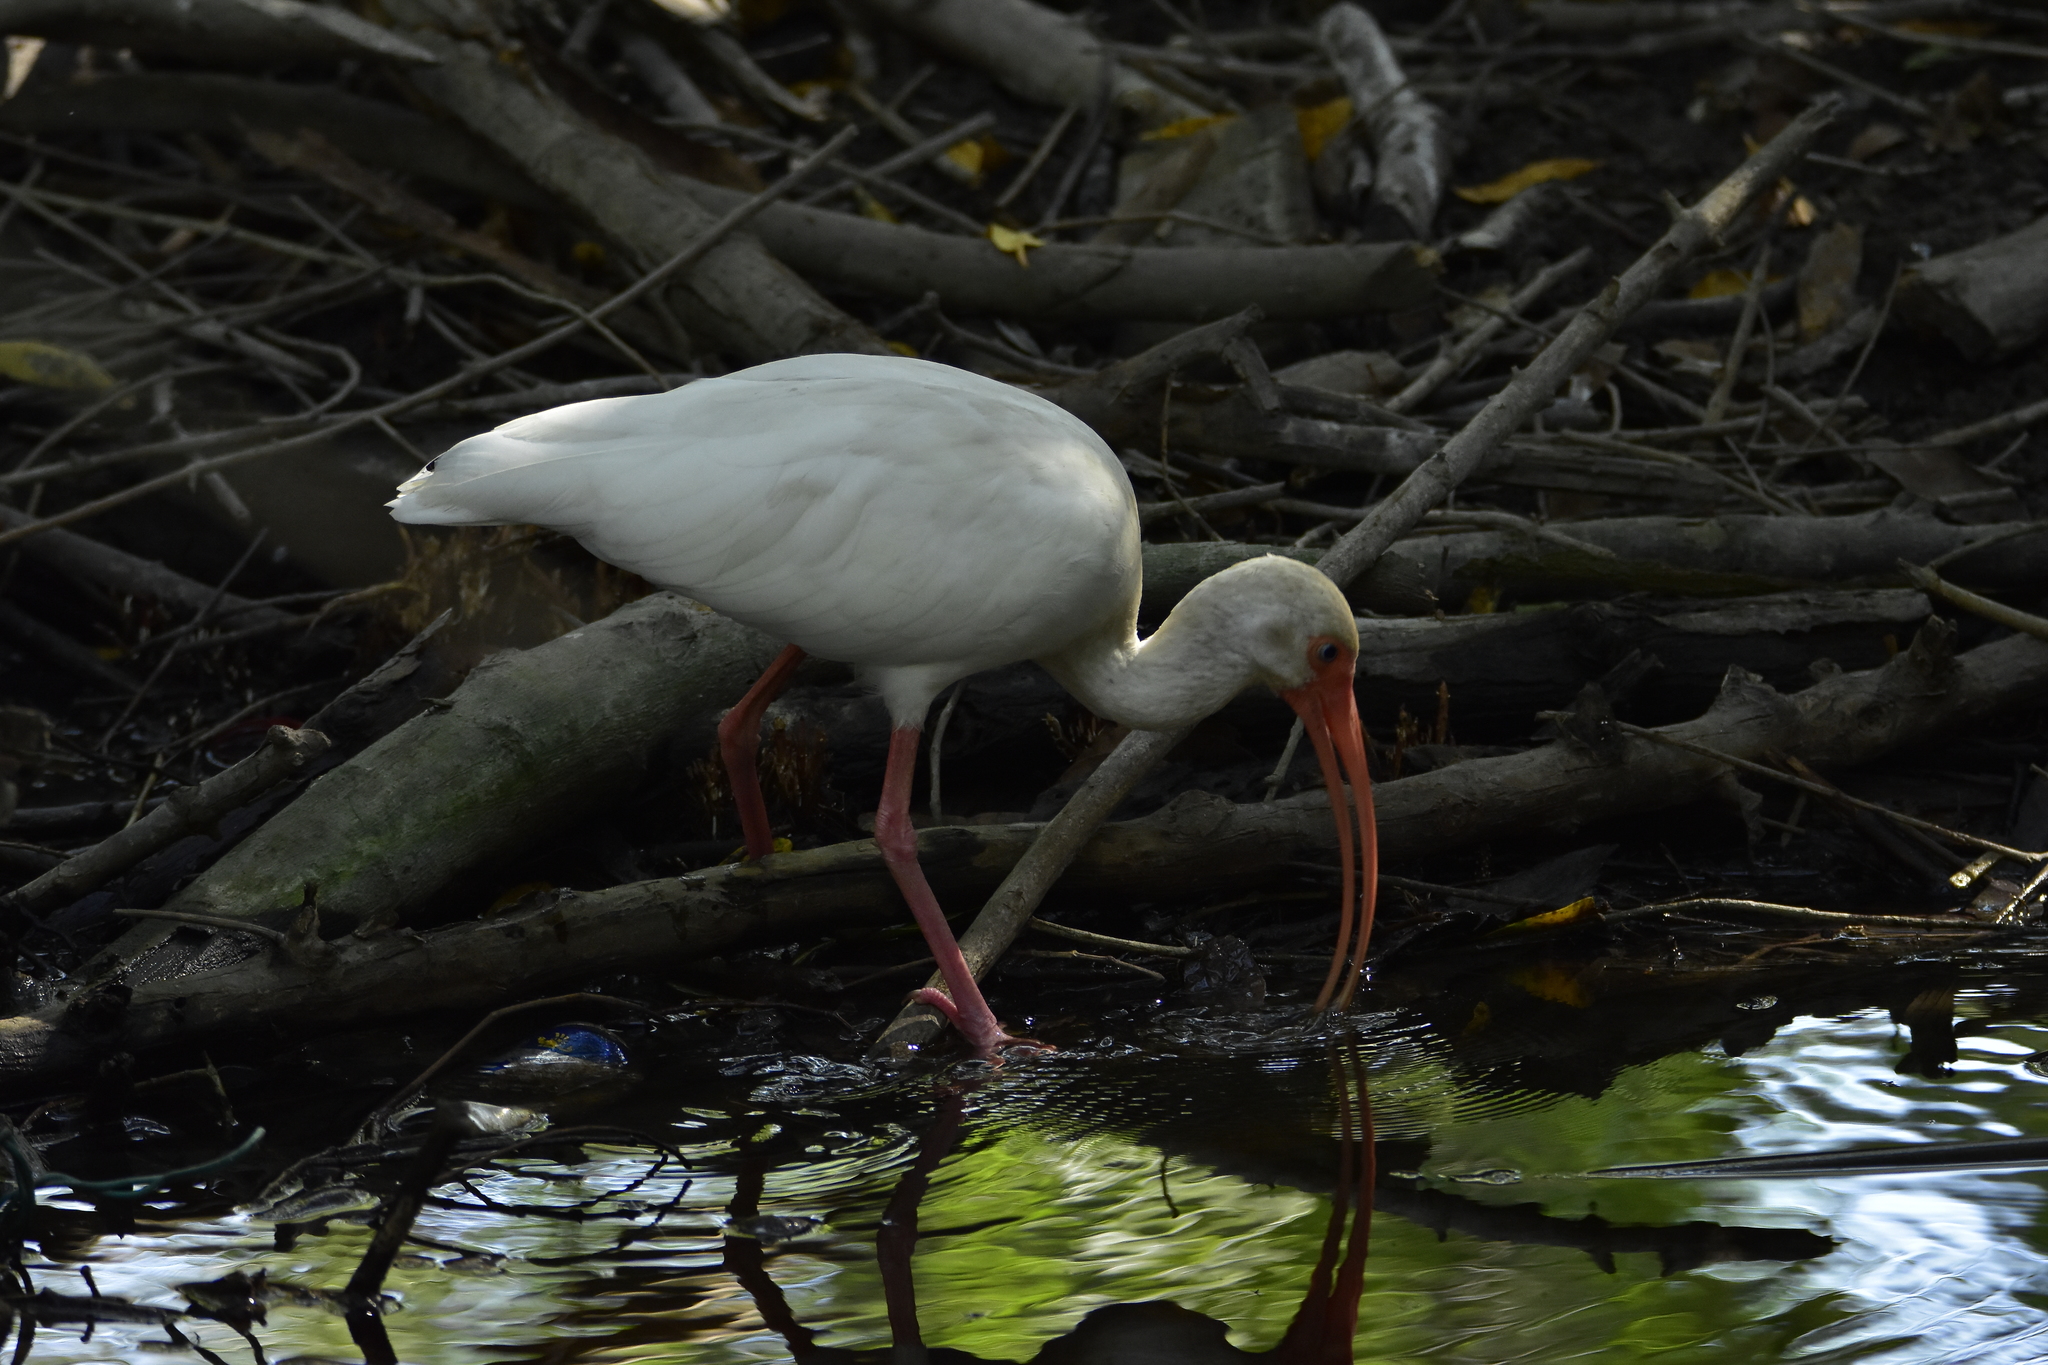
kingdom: Animalia
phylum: Chordata
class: Aves
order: Pelecaniformes
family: Threskiornithidae
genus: Eudocimus
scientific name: Eudocimus albus
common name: White ibis
